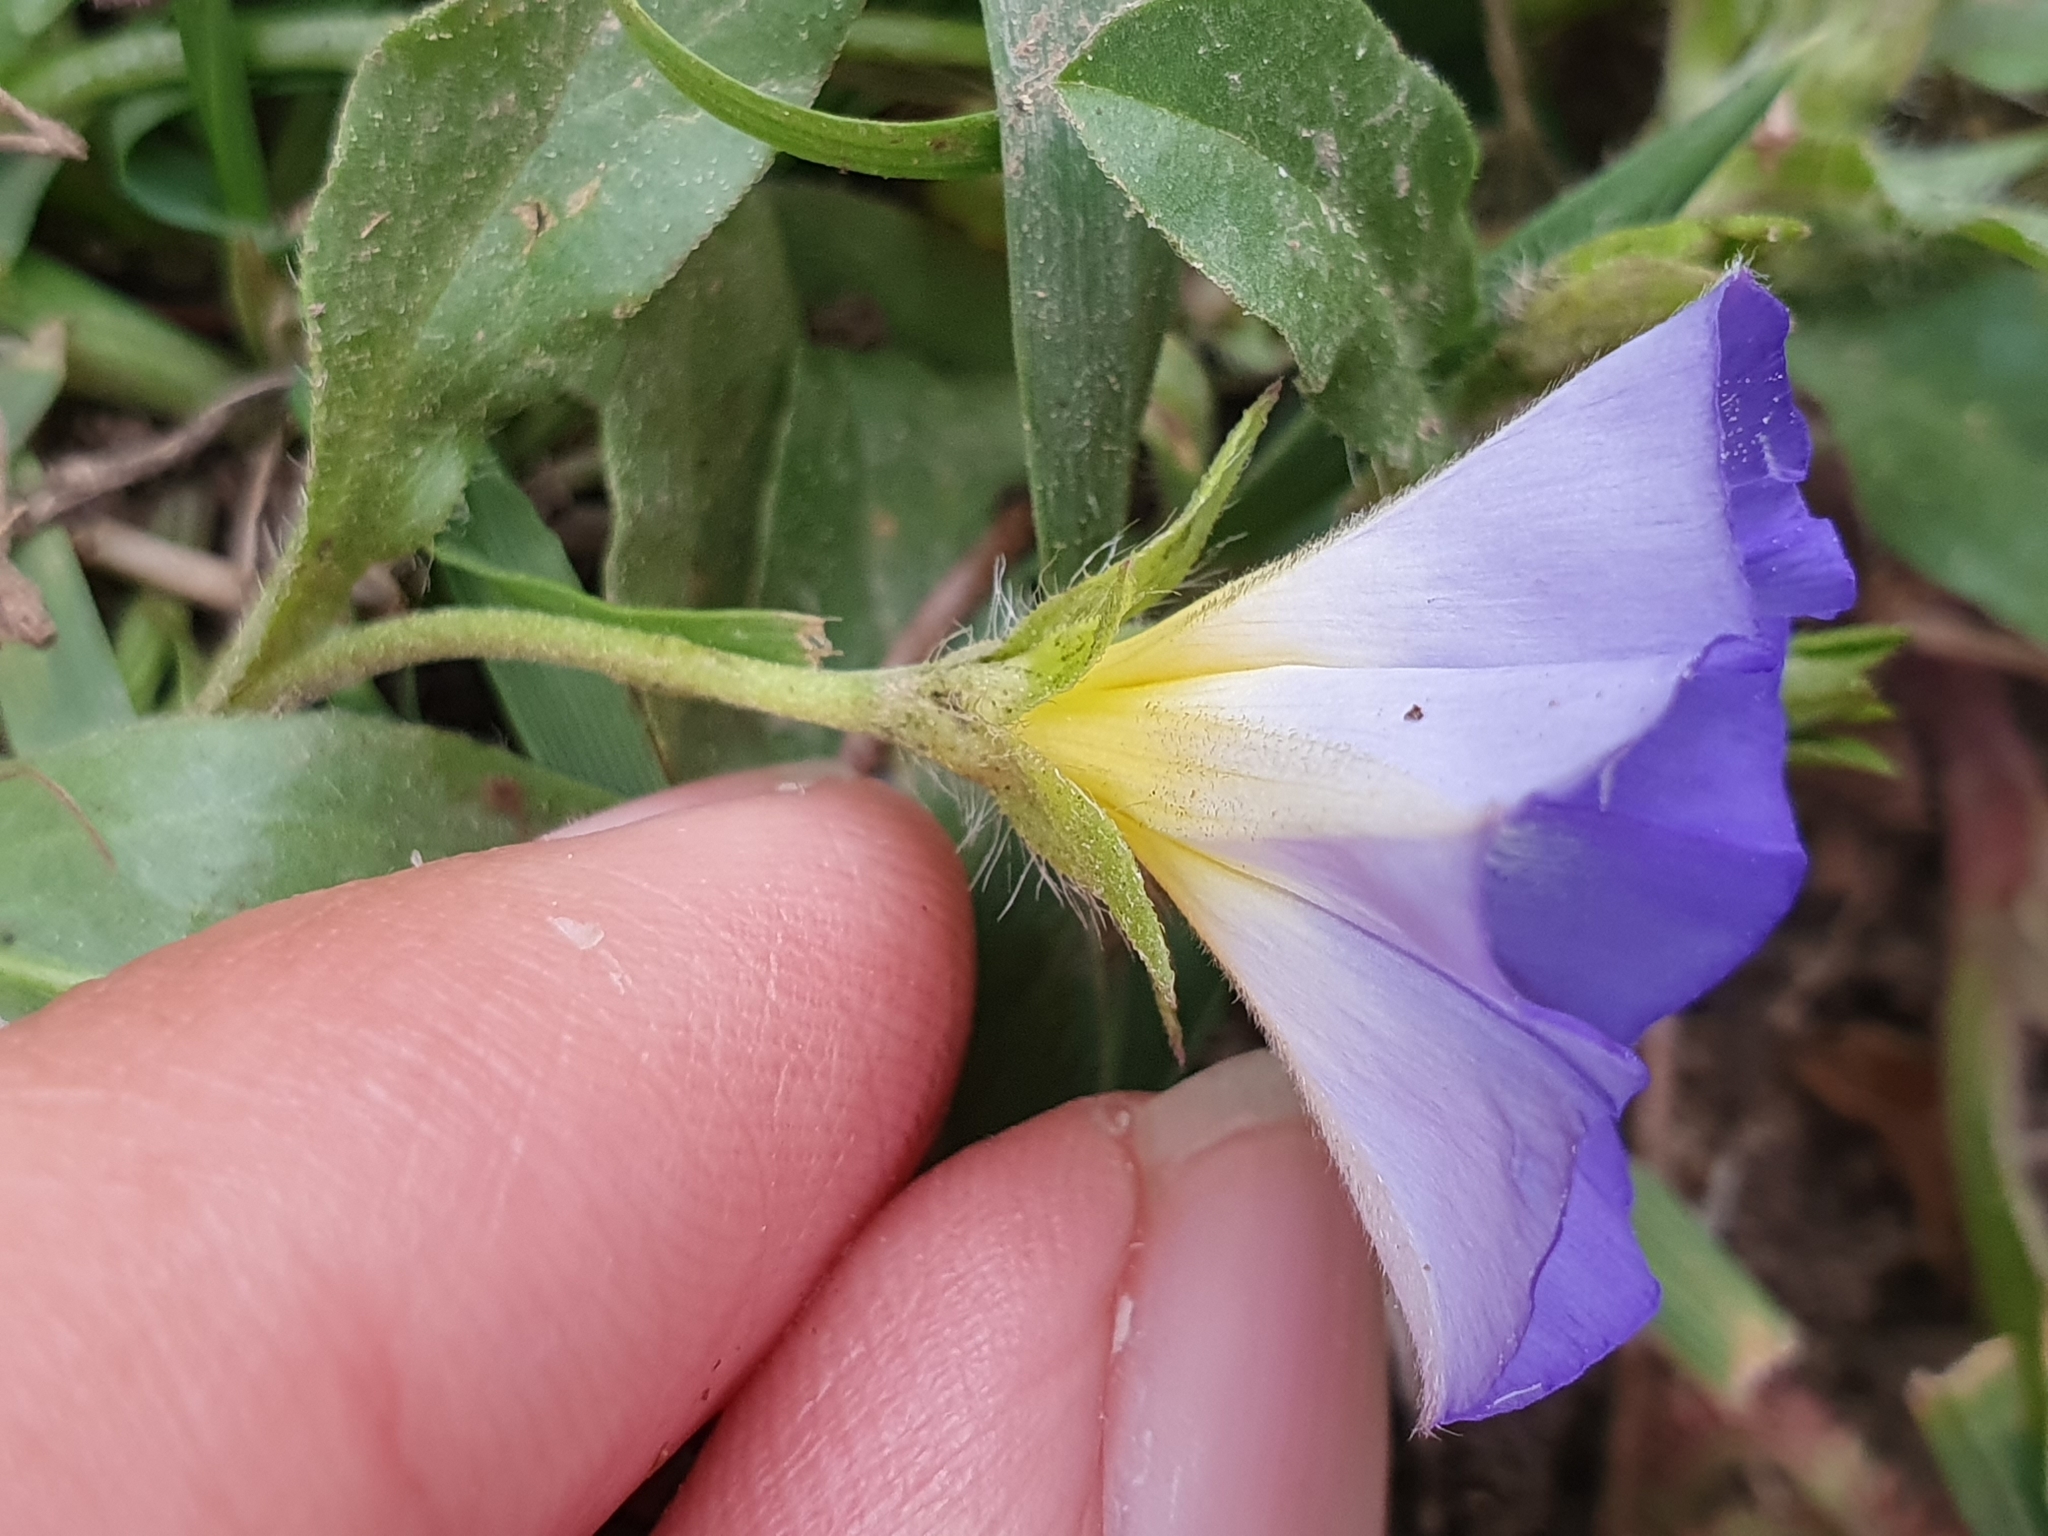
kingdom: Plantae
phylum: Tracheophyta
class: Magnoliopsida
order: Solanales
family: Convolvulaceae
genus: Convolvulus
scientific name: Convolvulus tricolor
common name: Dwarf morning-glory
